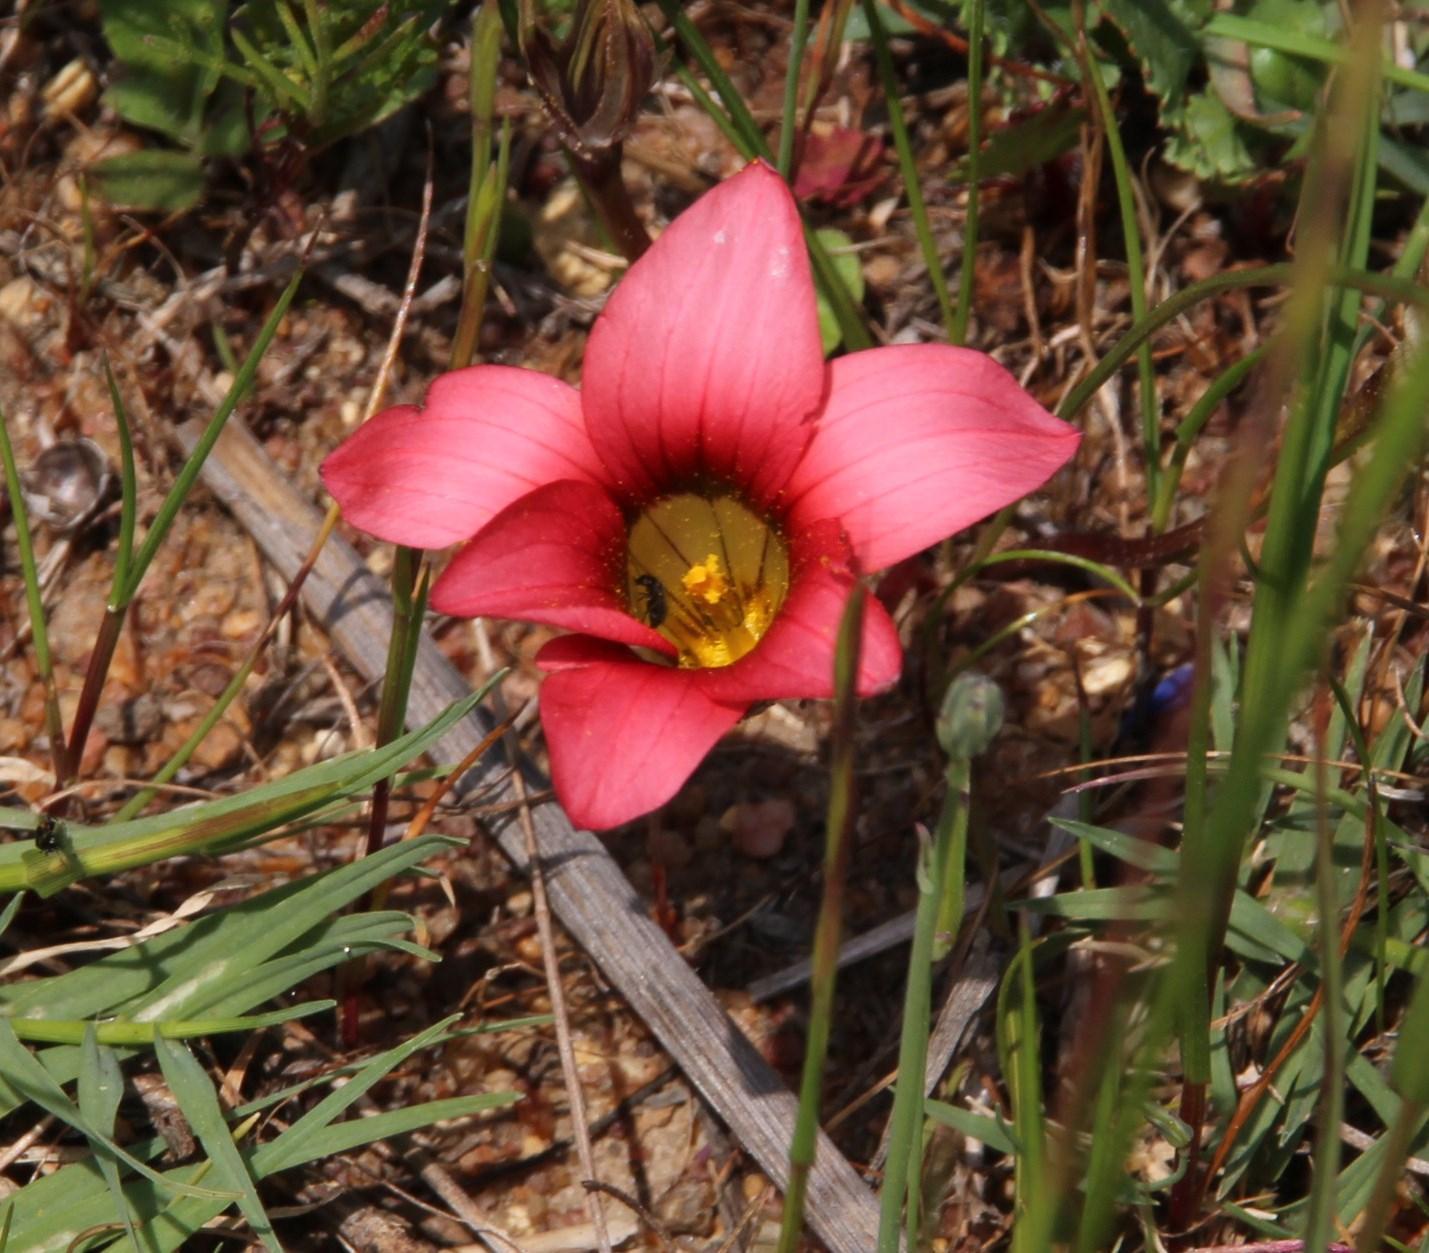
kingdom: Plantae
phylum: Tracheophyta
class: Liliopsida
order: Asparagales
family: Iridaceae
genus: Romulea
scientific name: Romulea hirsuta
